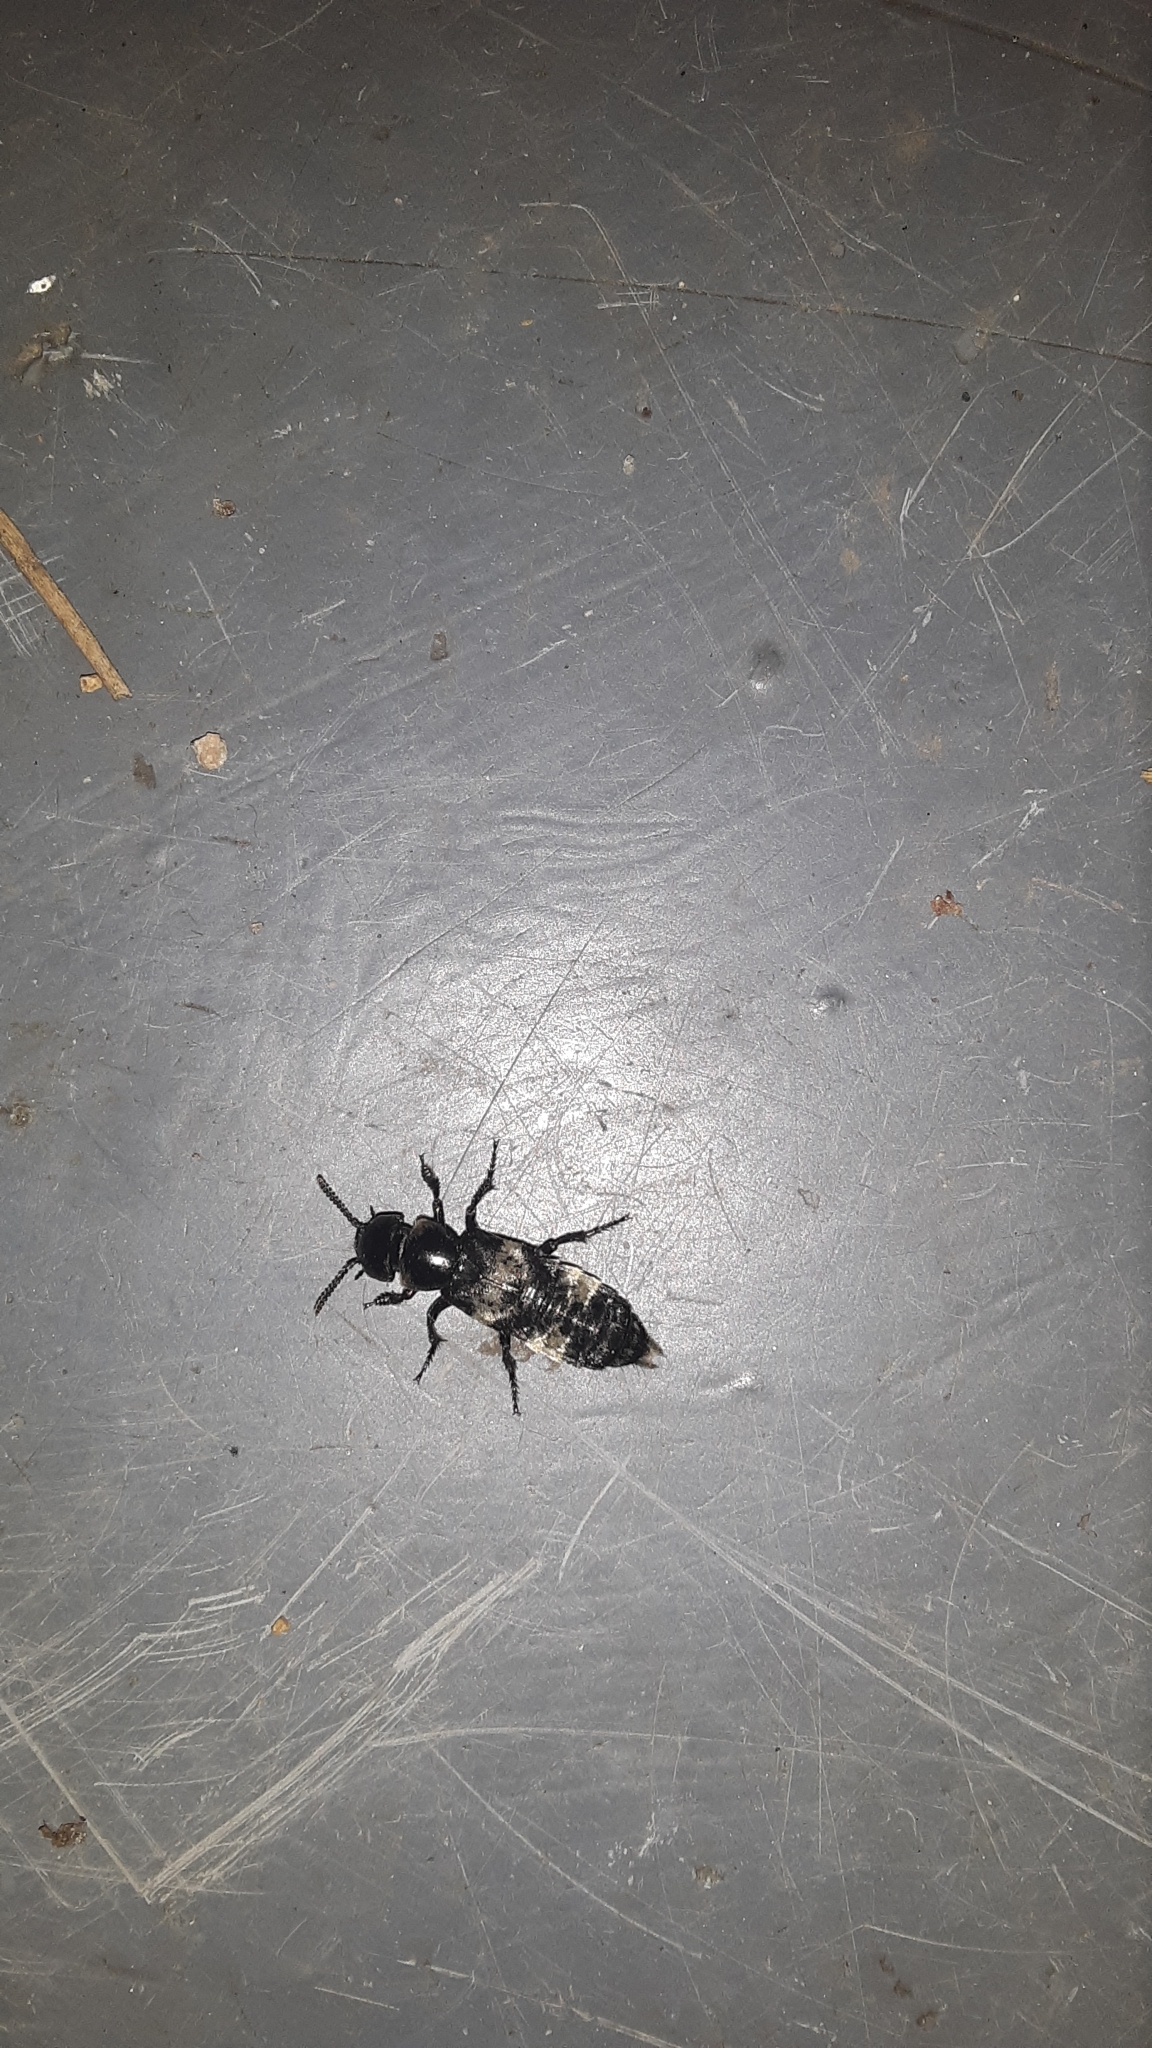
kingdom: Animalia
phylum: Arthropoda
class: Insecta
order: Coleoptera
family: Staphylinidae
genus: Creophilus
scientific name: Creophilus maxillosus
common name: Hairy rove beetle
